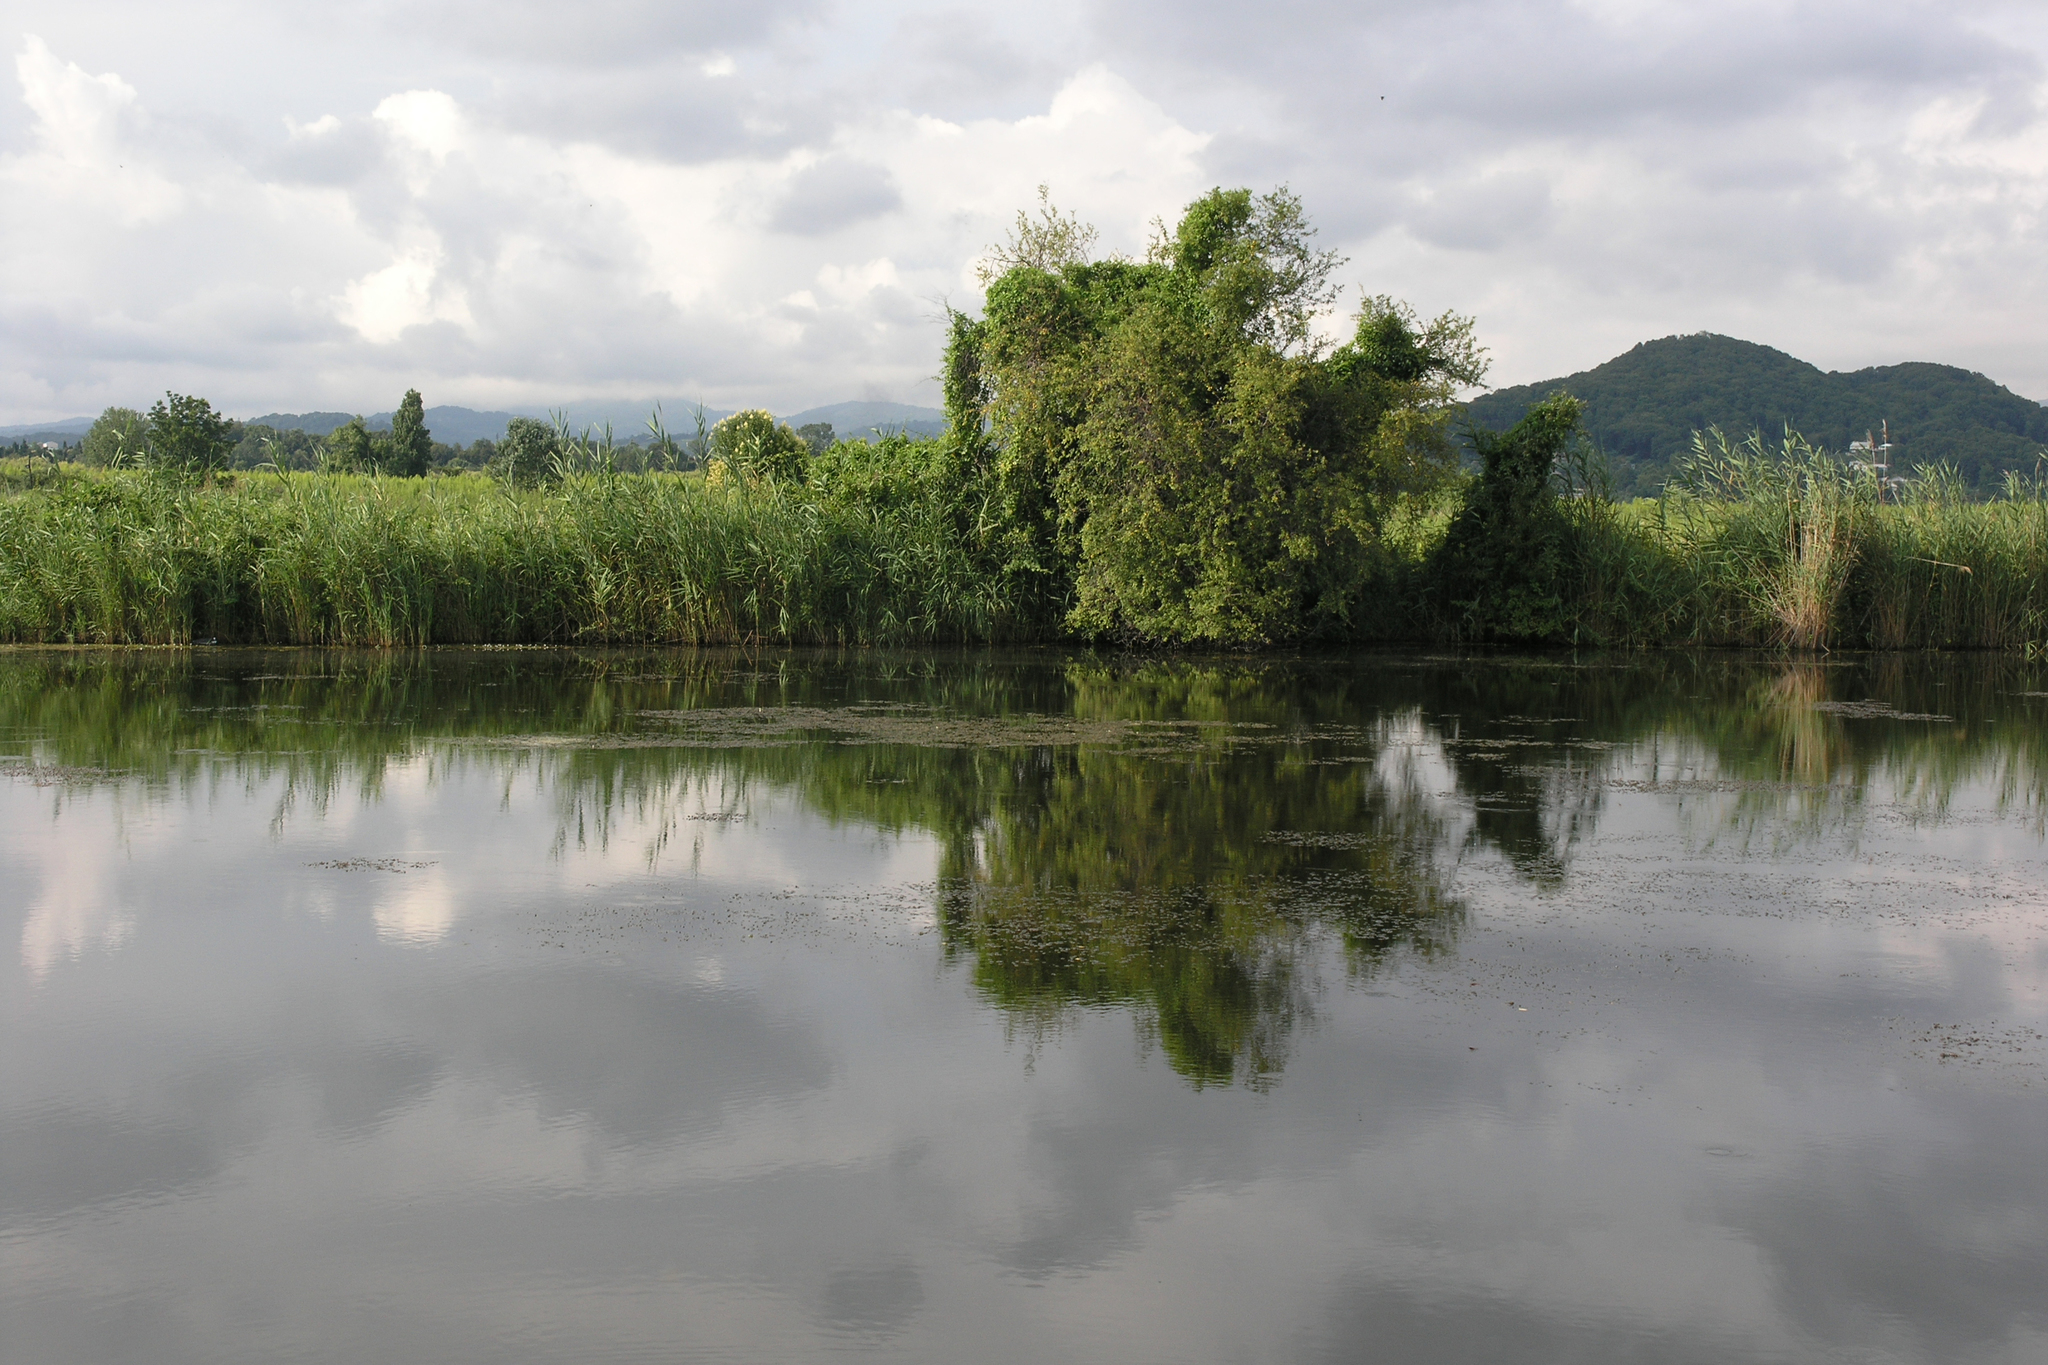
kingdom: Plantae
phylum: Tracheophyta
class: Liliopsida
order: Poales
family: Poaceae
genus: Phragmites
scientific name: Phragmites australis
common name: Common reed
